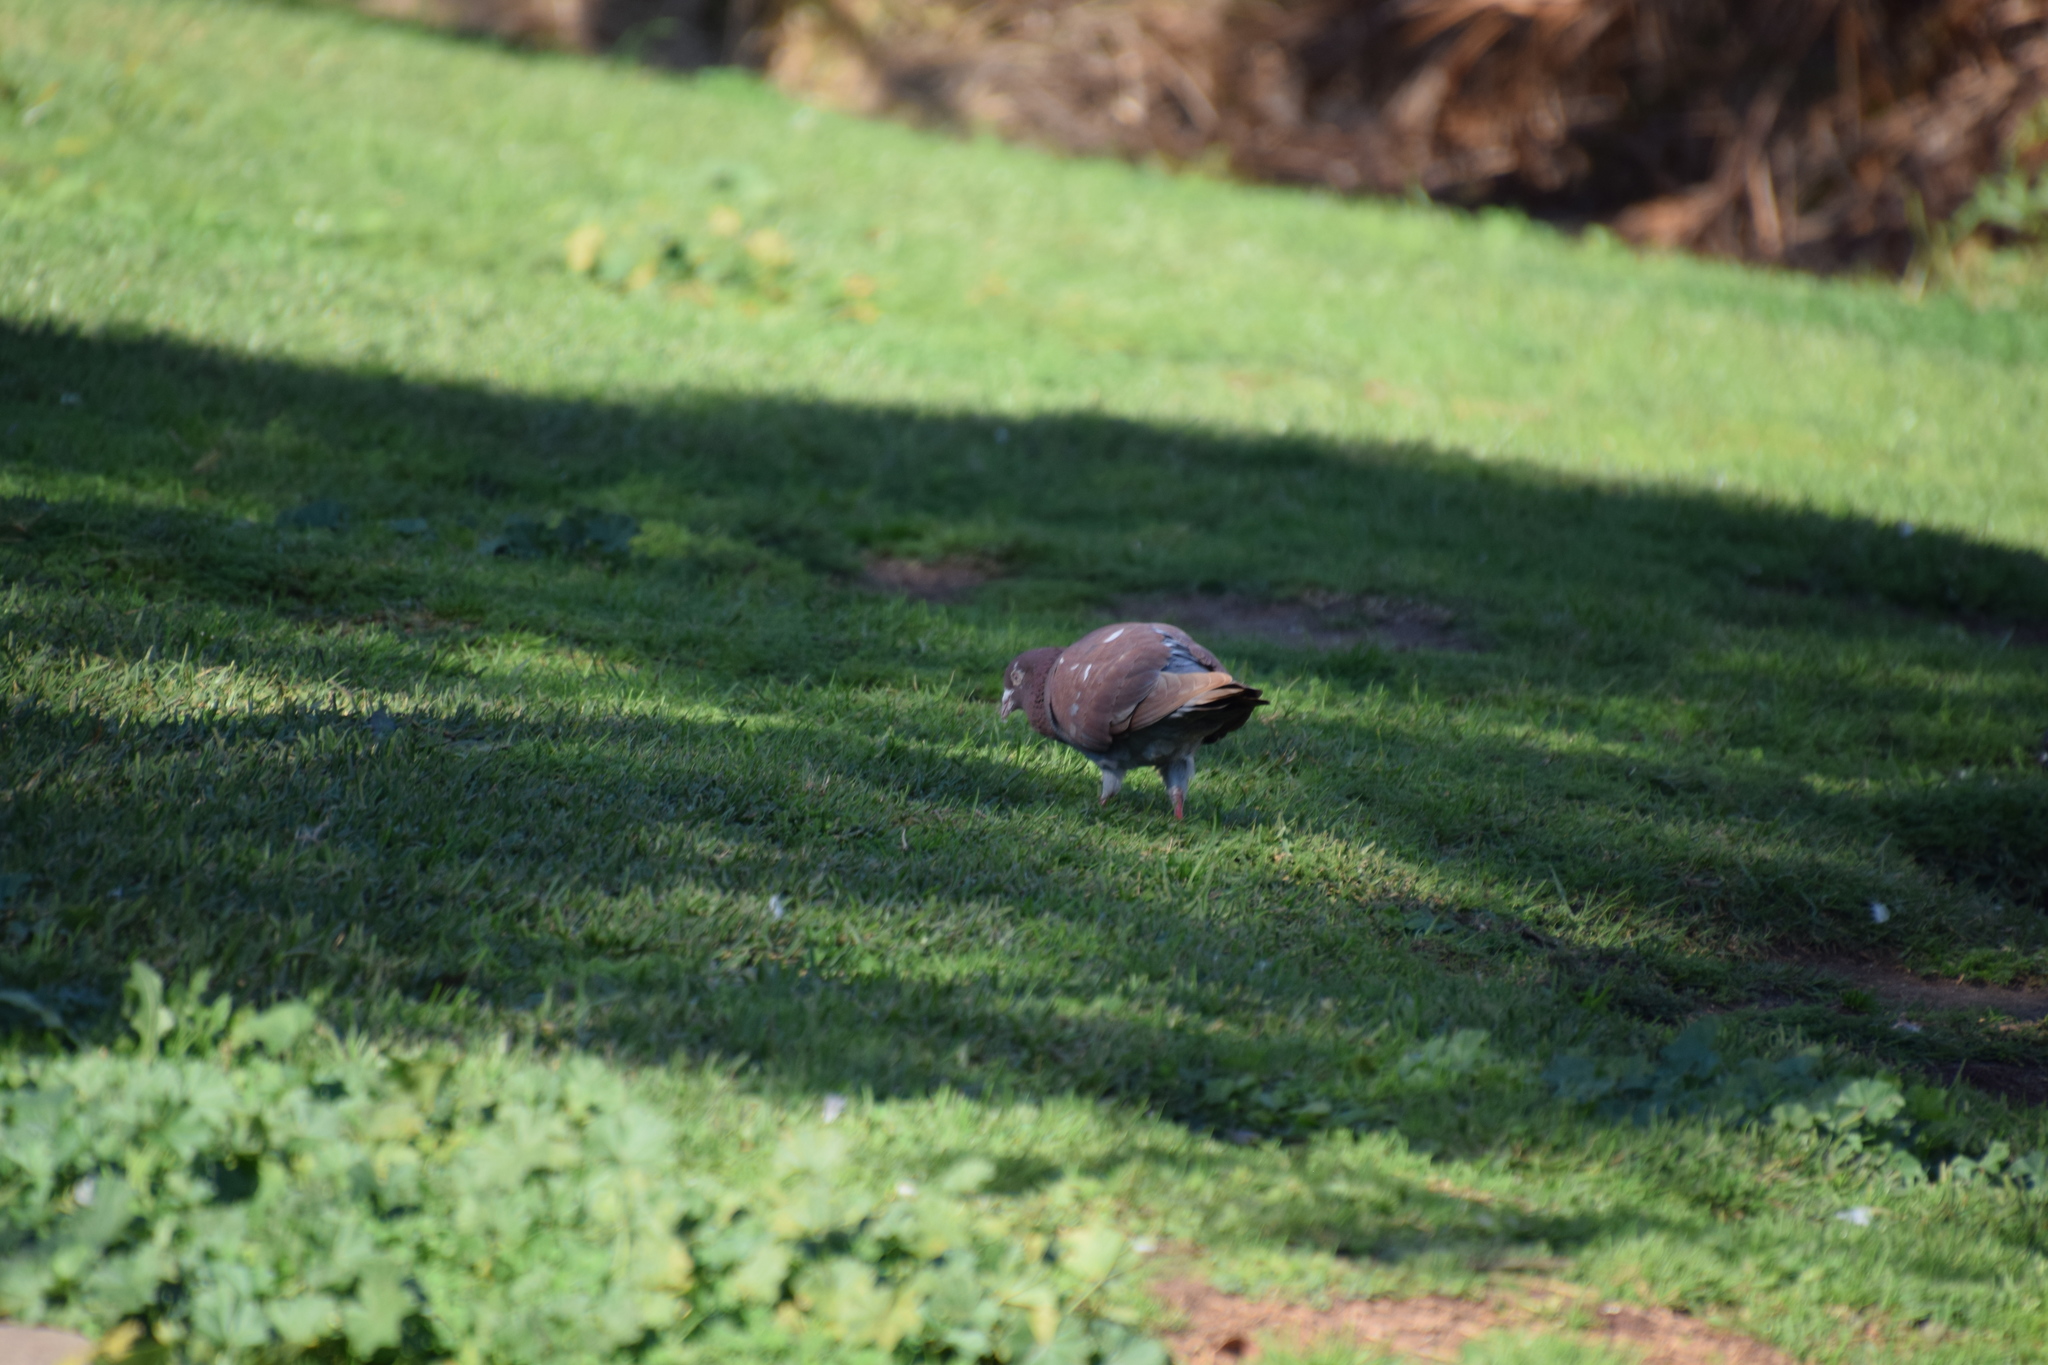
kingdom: Animalia
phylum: Chordata
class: Aves
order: Columbiformes
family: Columbidae
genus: Columba
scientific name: Columba livia
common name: Rock pigeon
